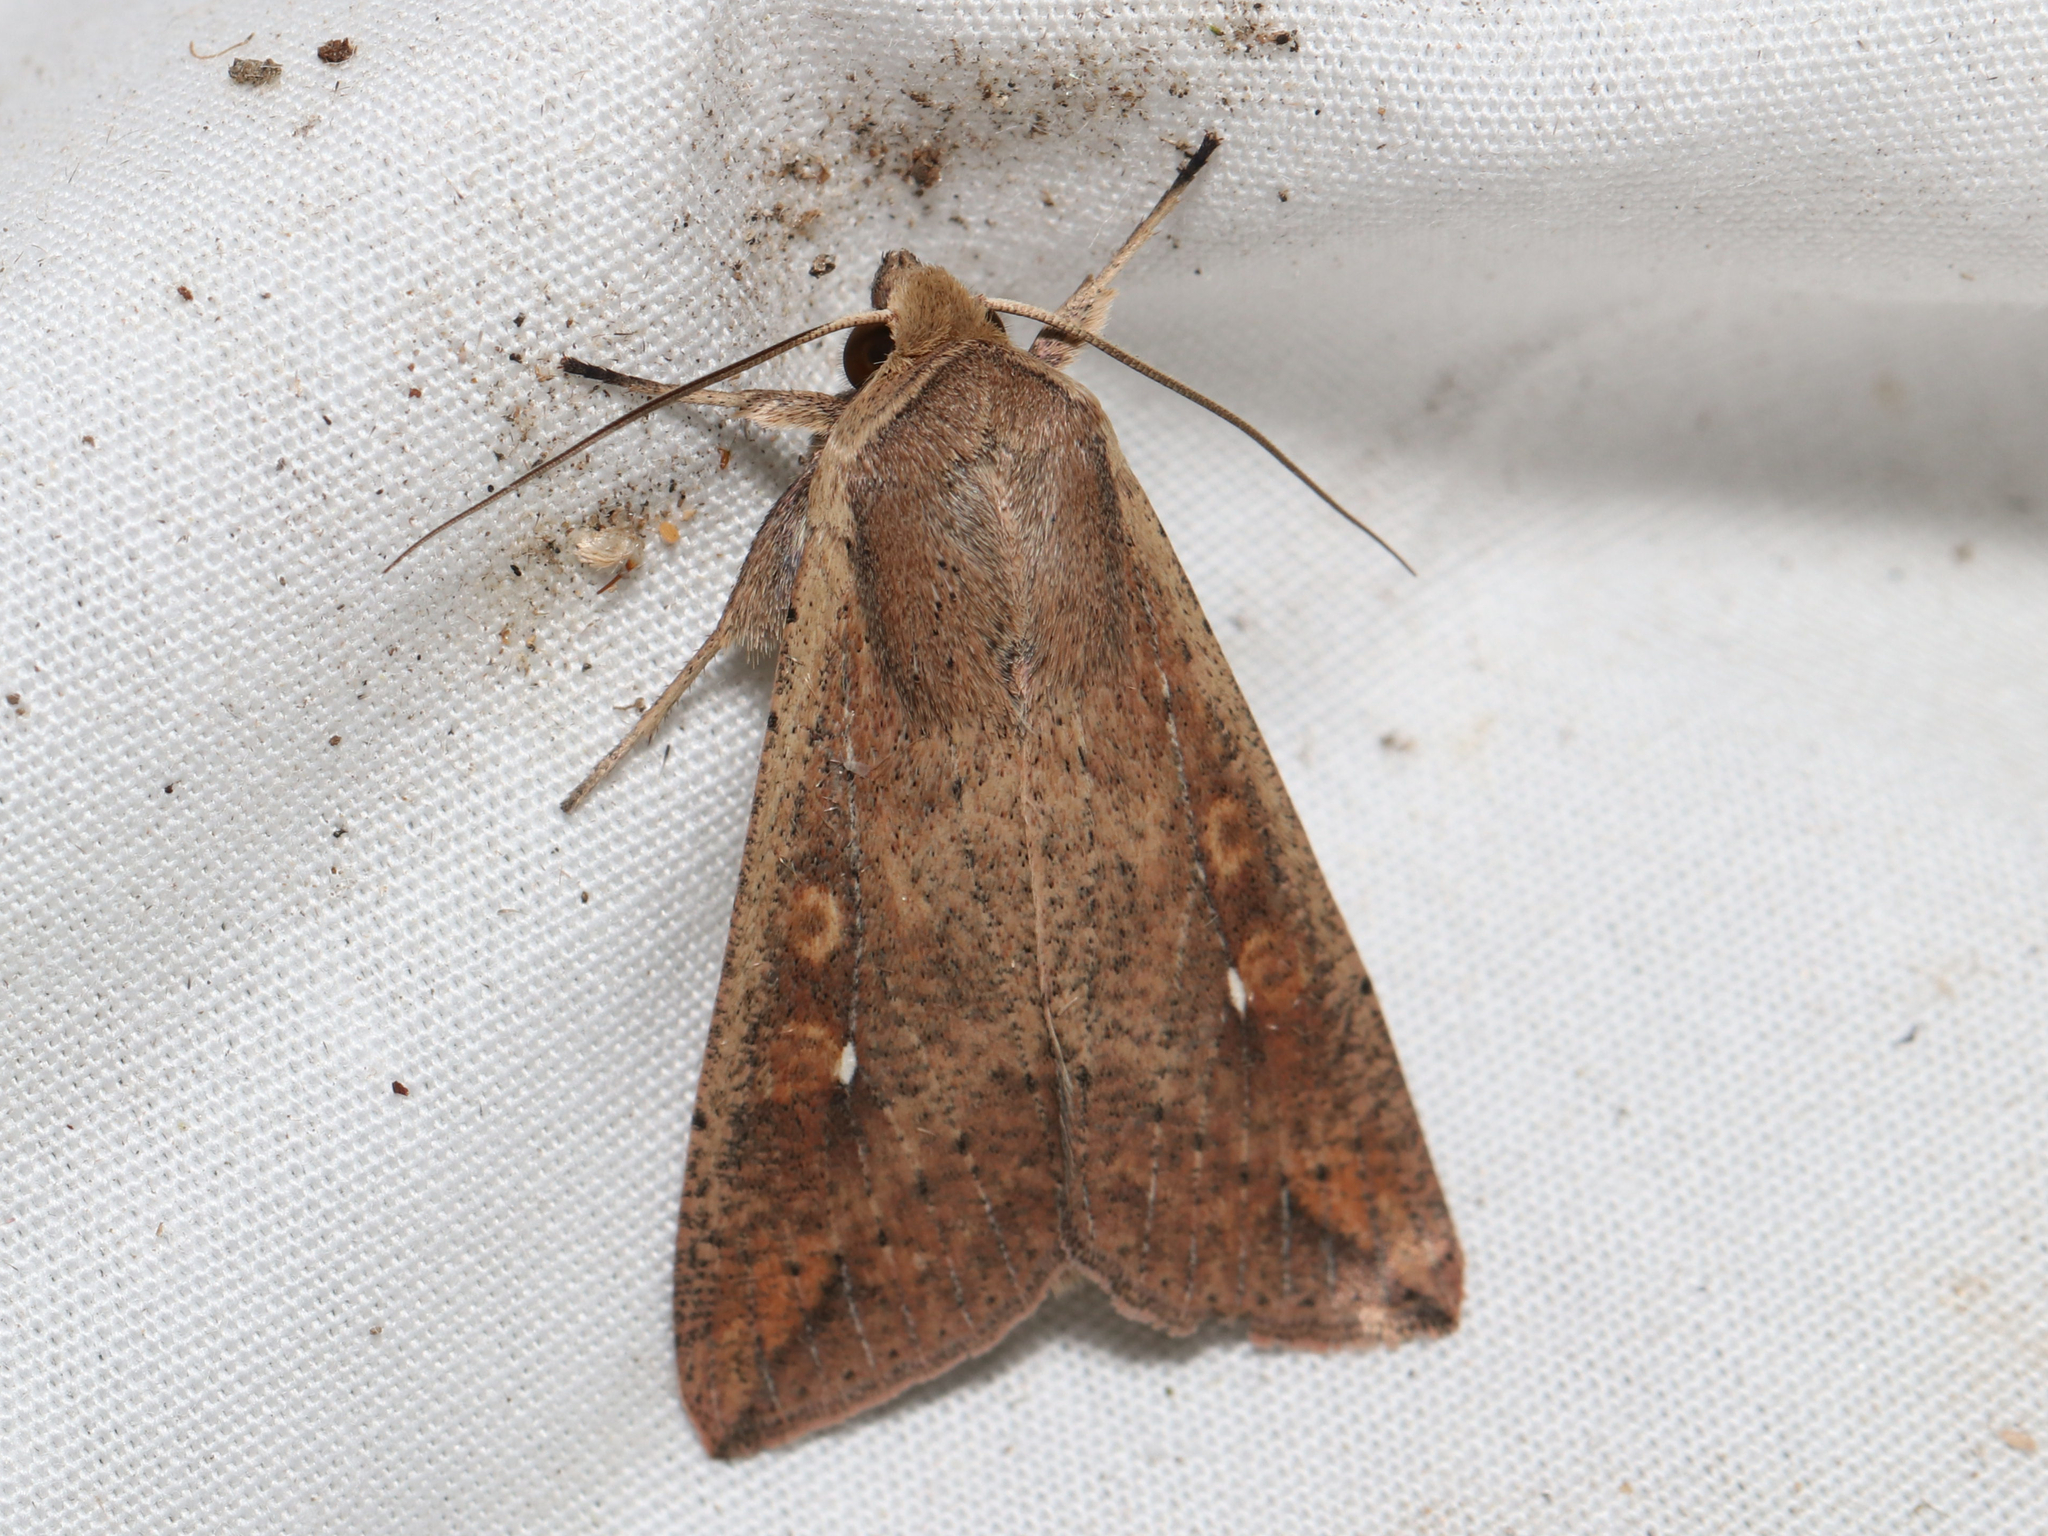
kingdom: Animalia
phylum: Arthropoda
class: Insecta
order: Lepidoptera
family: Noctuidae
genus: Mythimna
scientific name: Mythimna unipuncta
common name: White-speck
